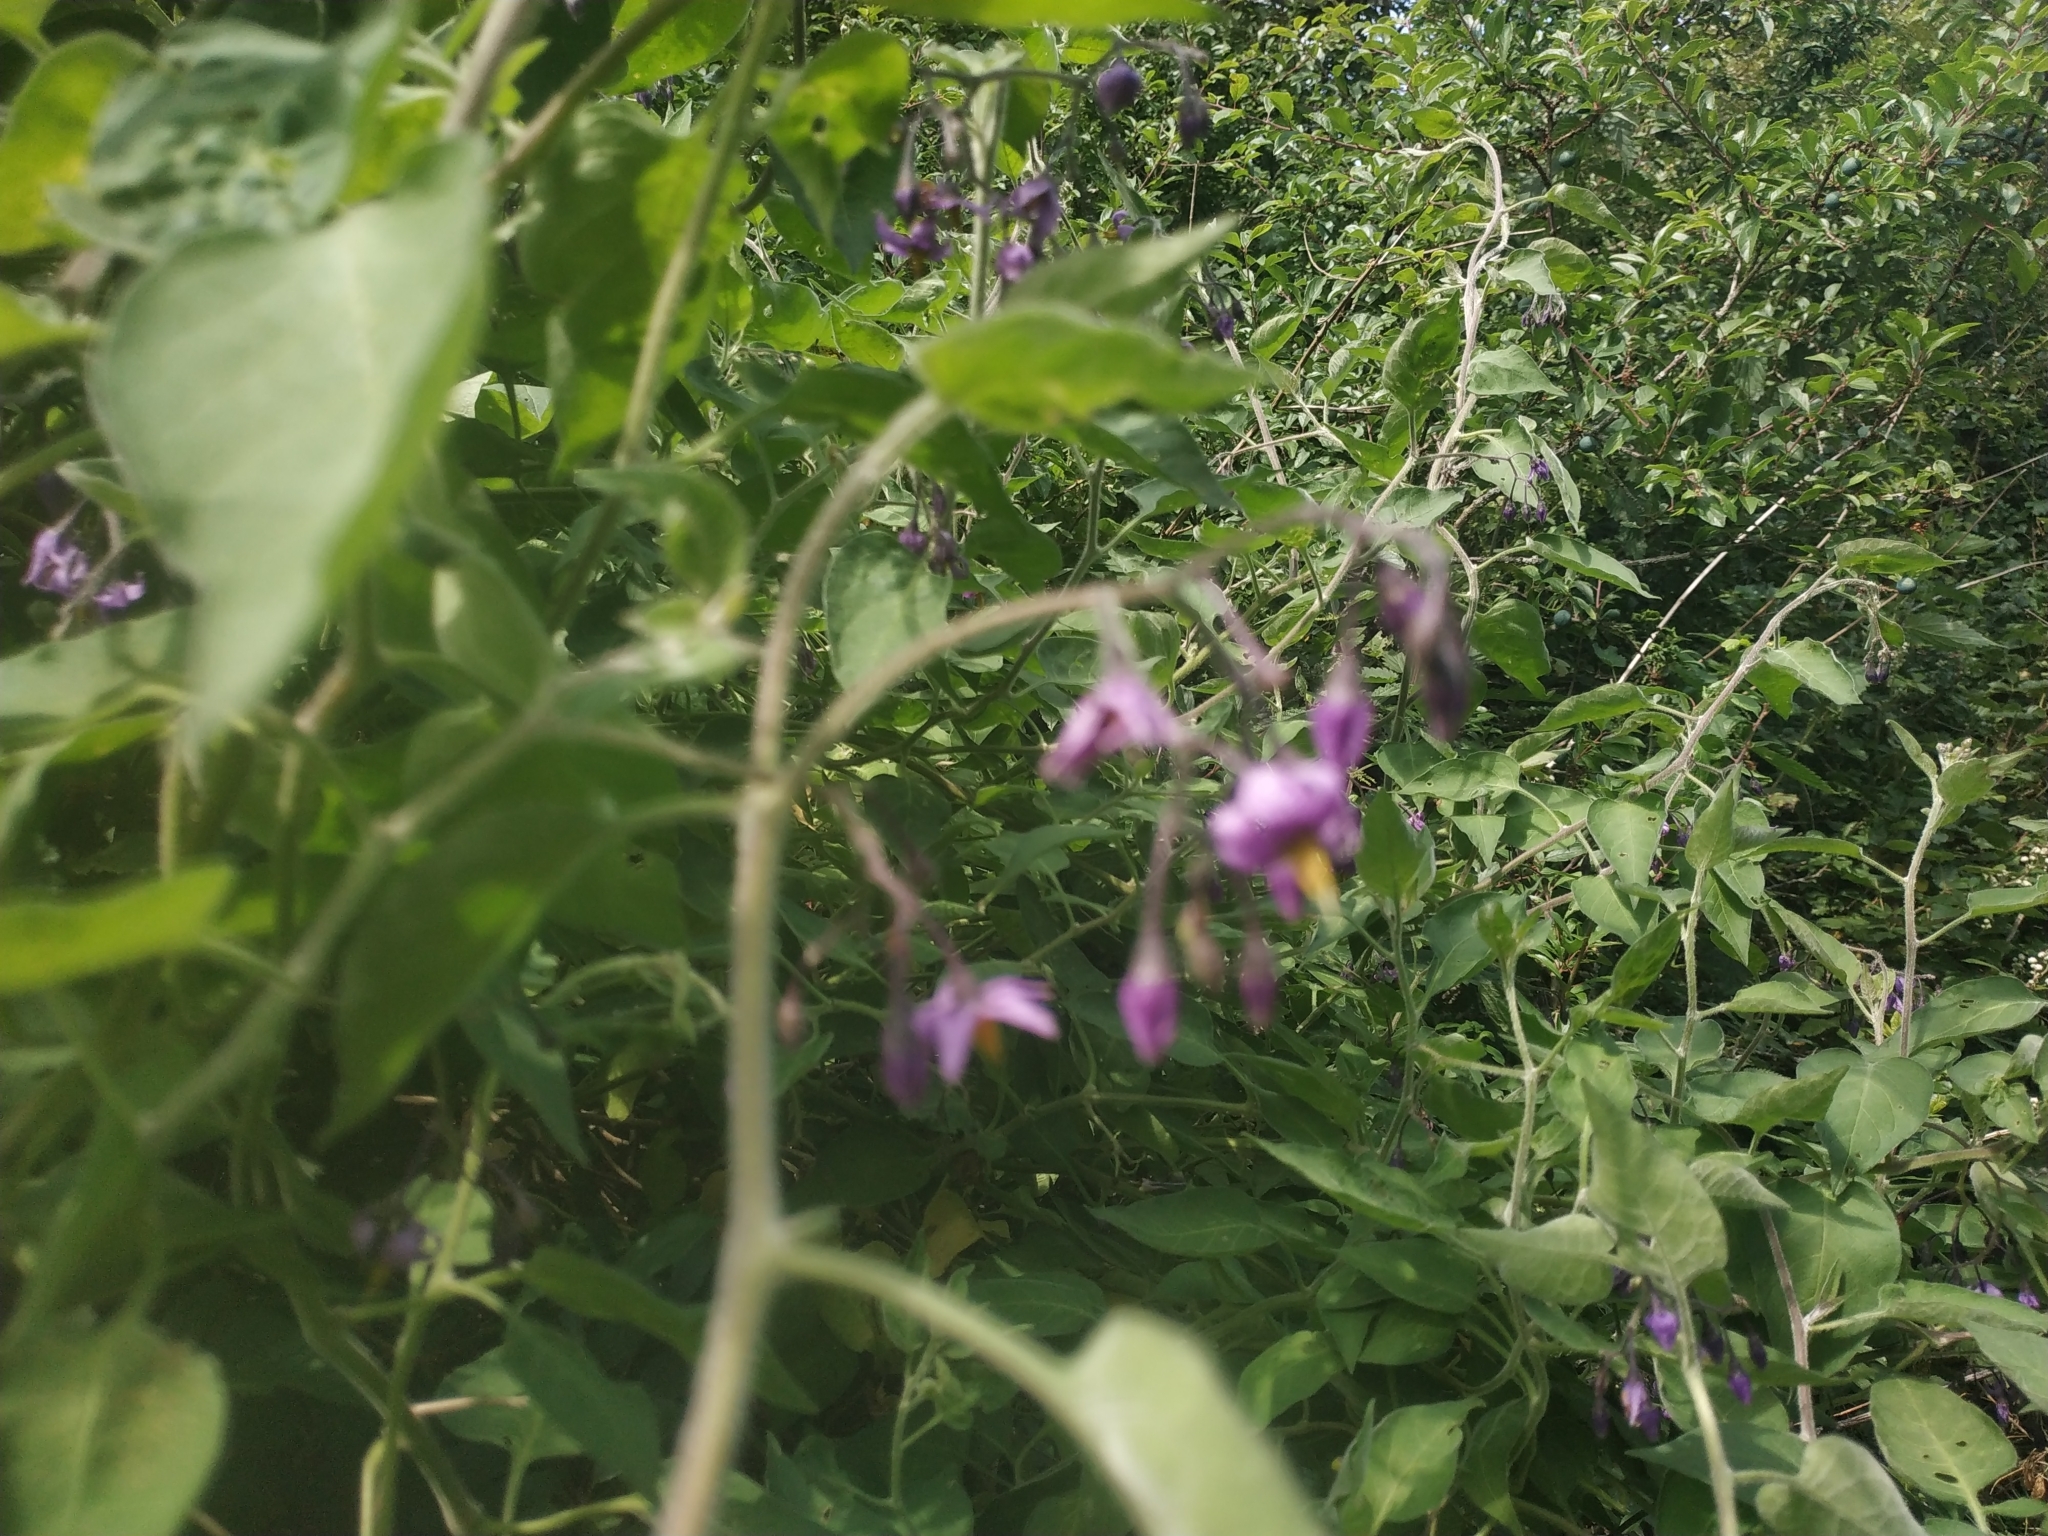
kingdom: Plantae
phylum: Tracheophyta
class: Magnoliopsida
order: Solanales
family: Solanaceae
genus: Solanum
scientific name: Solanum dulcamara
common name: Climbing nightshade
